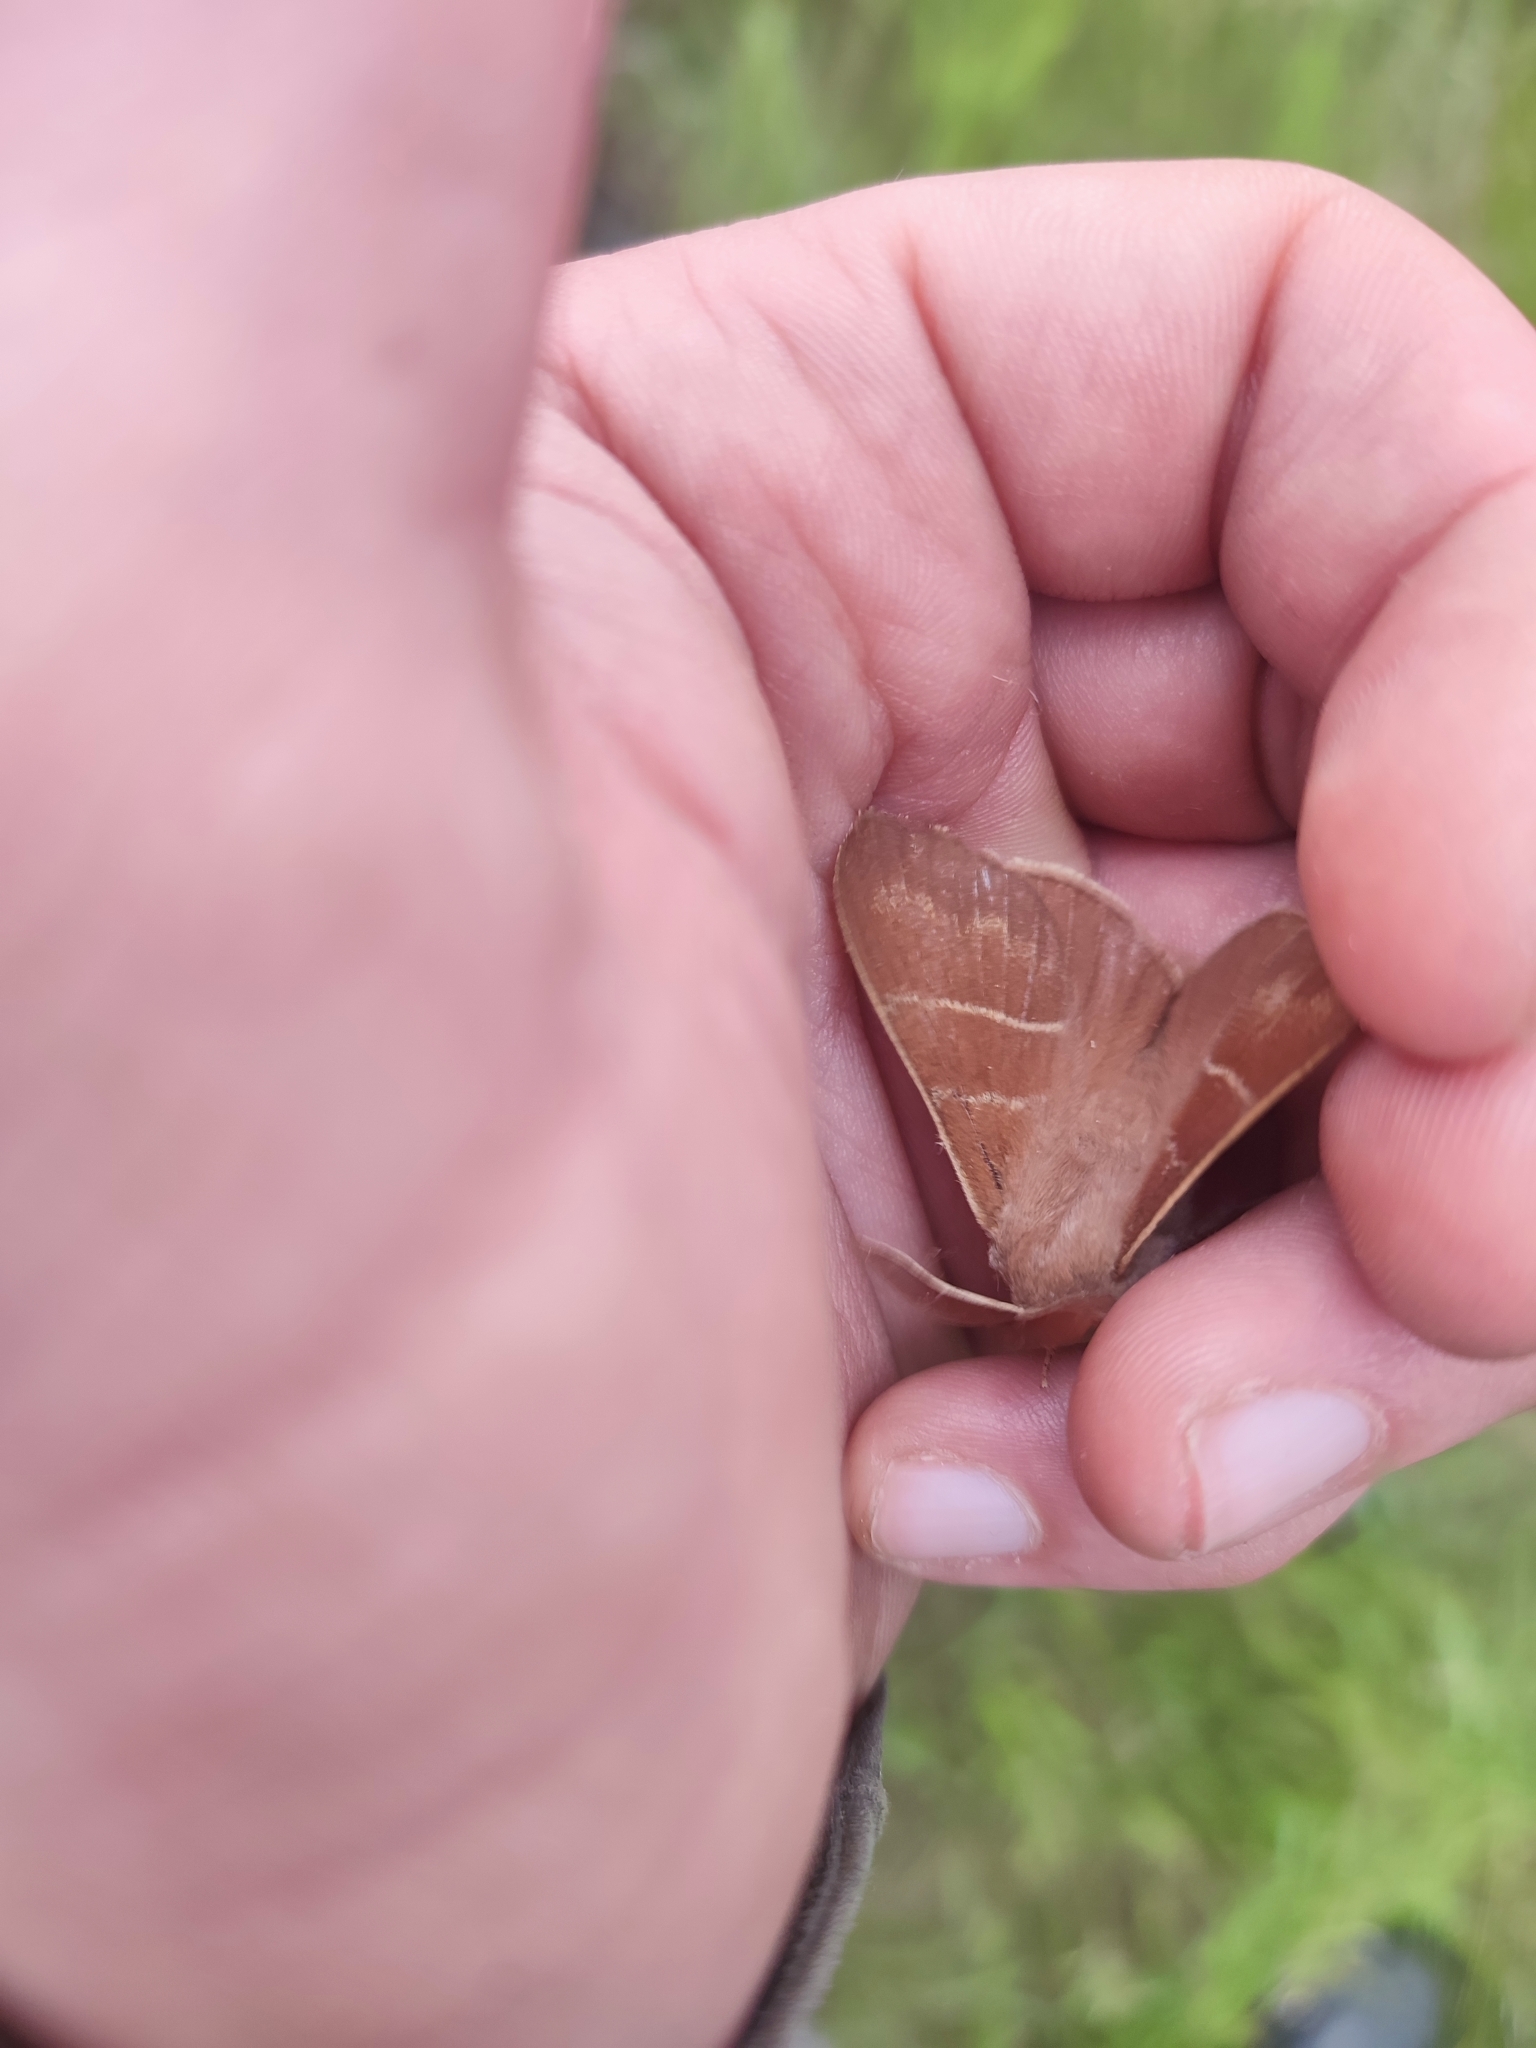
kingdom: Animalia
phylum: Arthropoda
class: Insecta
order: Lepidoptera
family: Lasiocampidae
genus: Macrothylacia
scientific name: Macrothylacia rubi
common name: Fox moth
